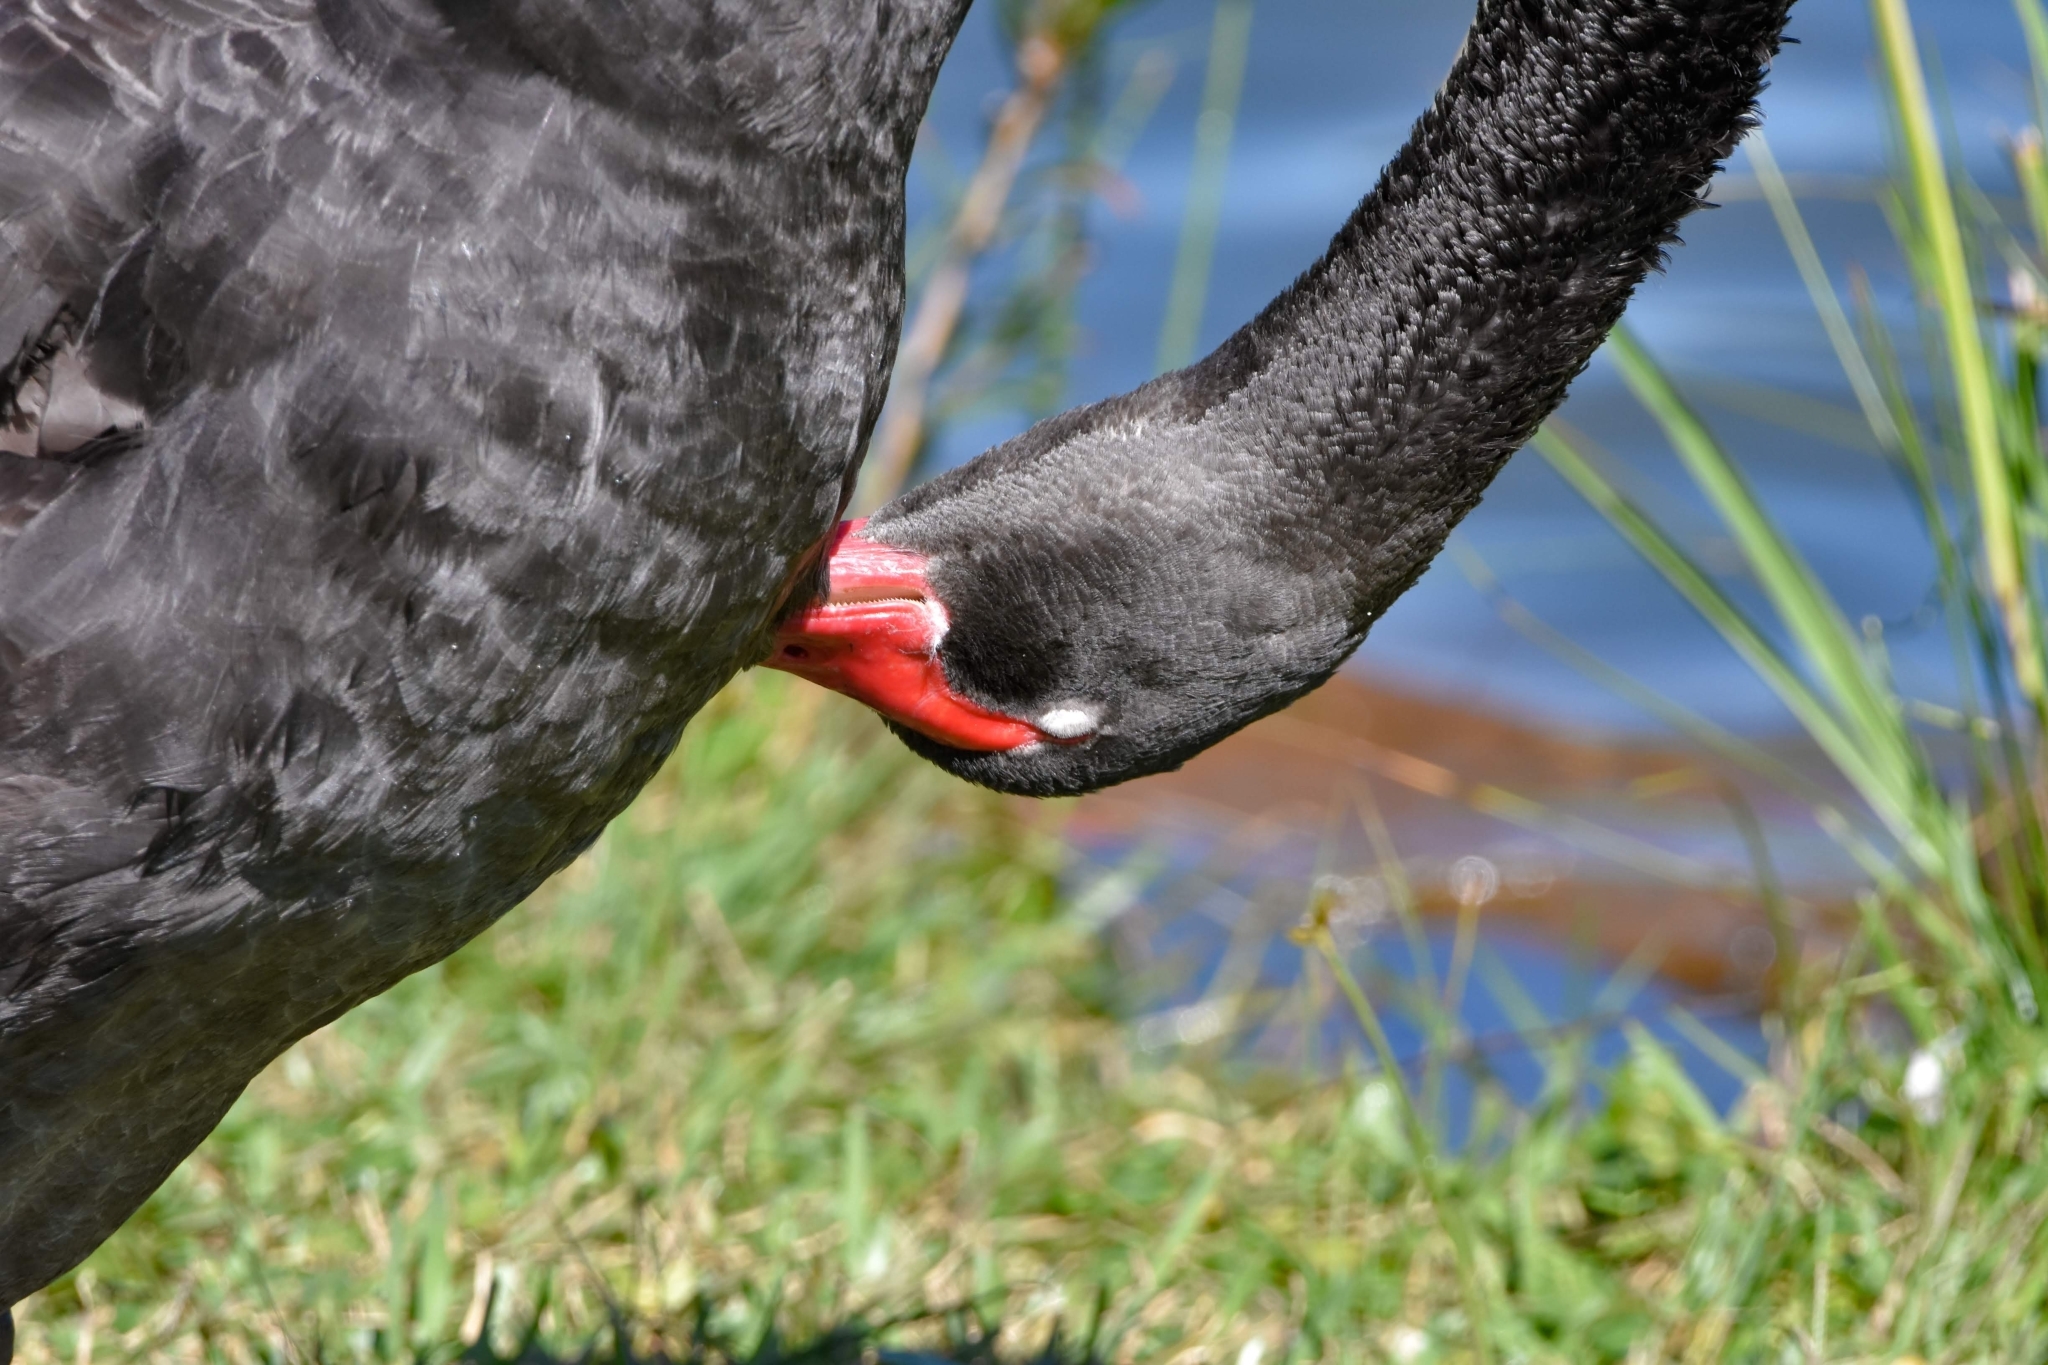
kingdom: Animalia
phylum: Chordata
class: Aves
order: Anseriformes
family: Anatidae
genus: Cygnus
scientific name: Cygnus atratus
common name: Black swan
